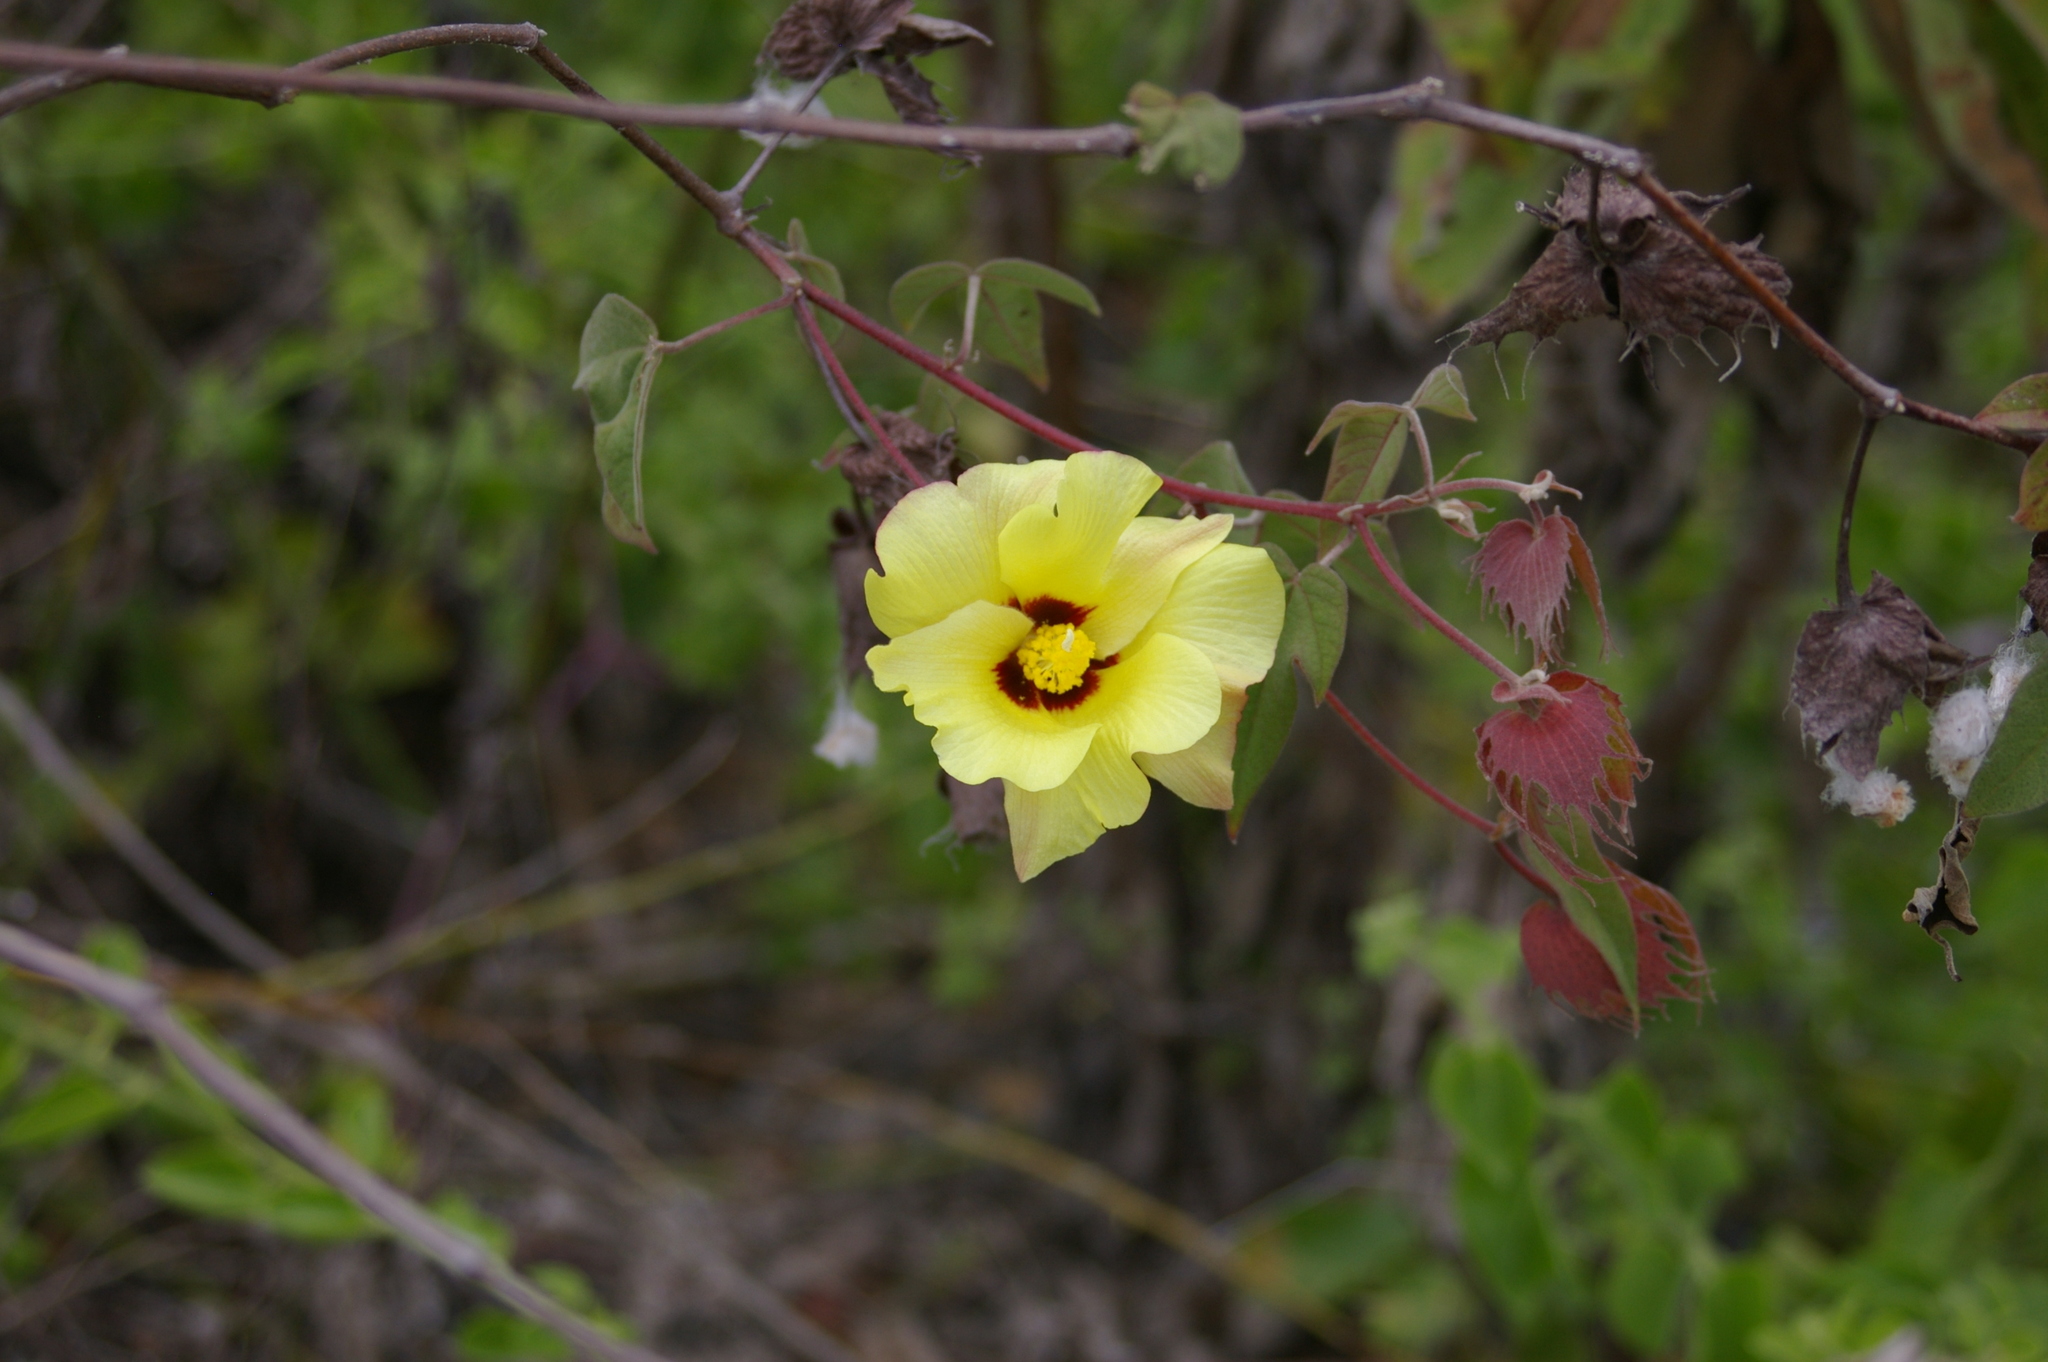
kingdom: Plantae
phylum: Tracheophyta
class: Magnoliopsida
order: Malvales
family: Malvaceae
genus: Gossypium
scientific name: Gossypium darwinii
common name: Darwin's cotton
